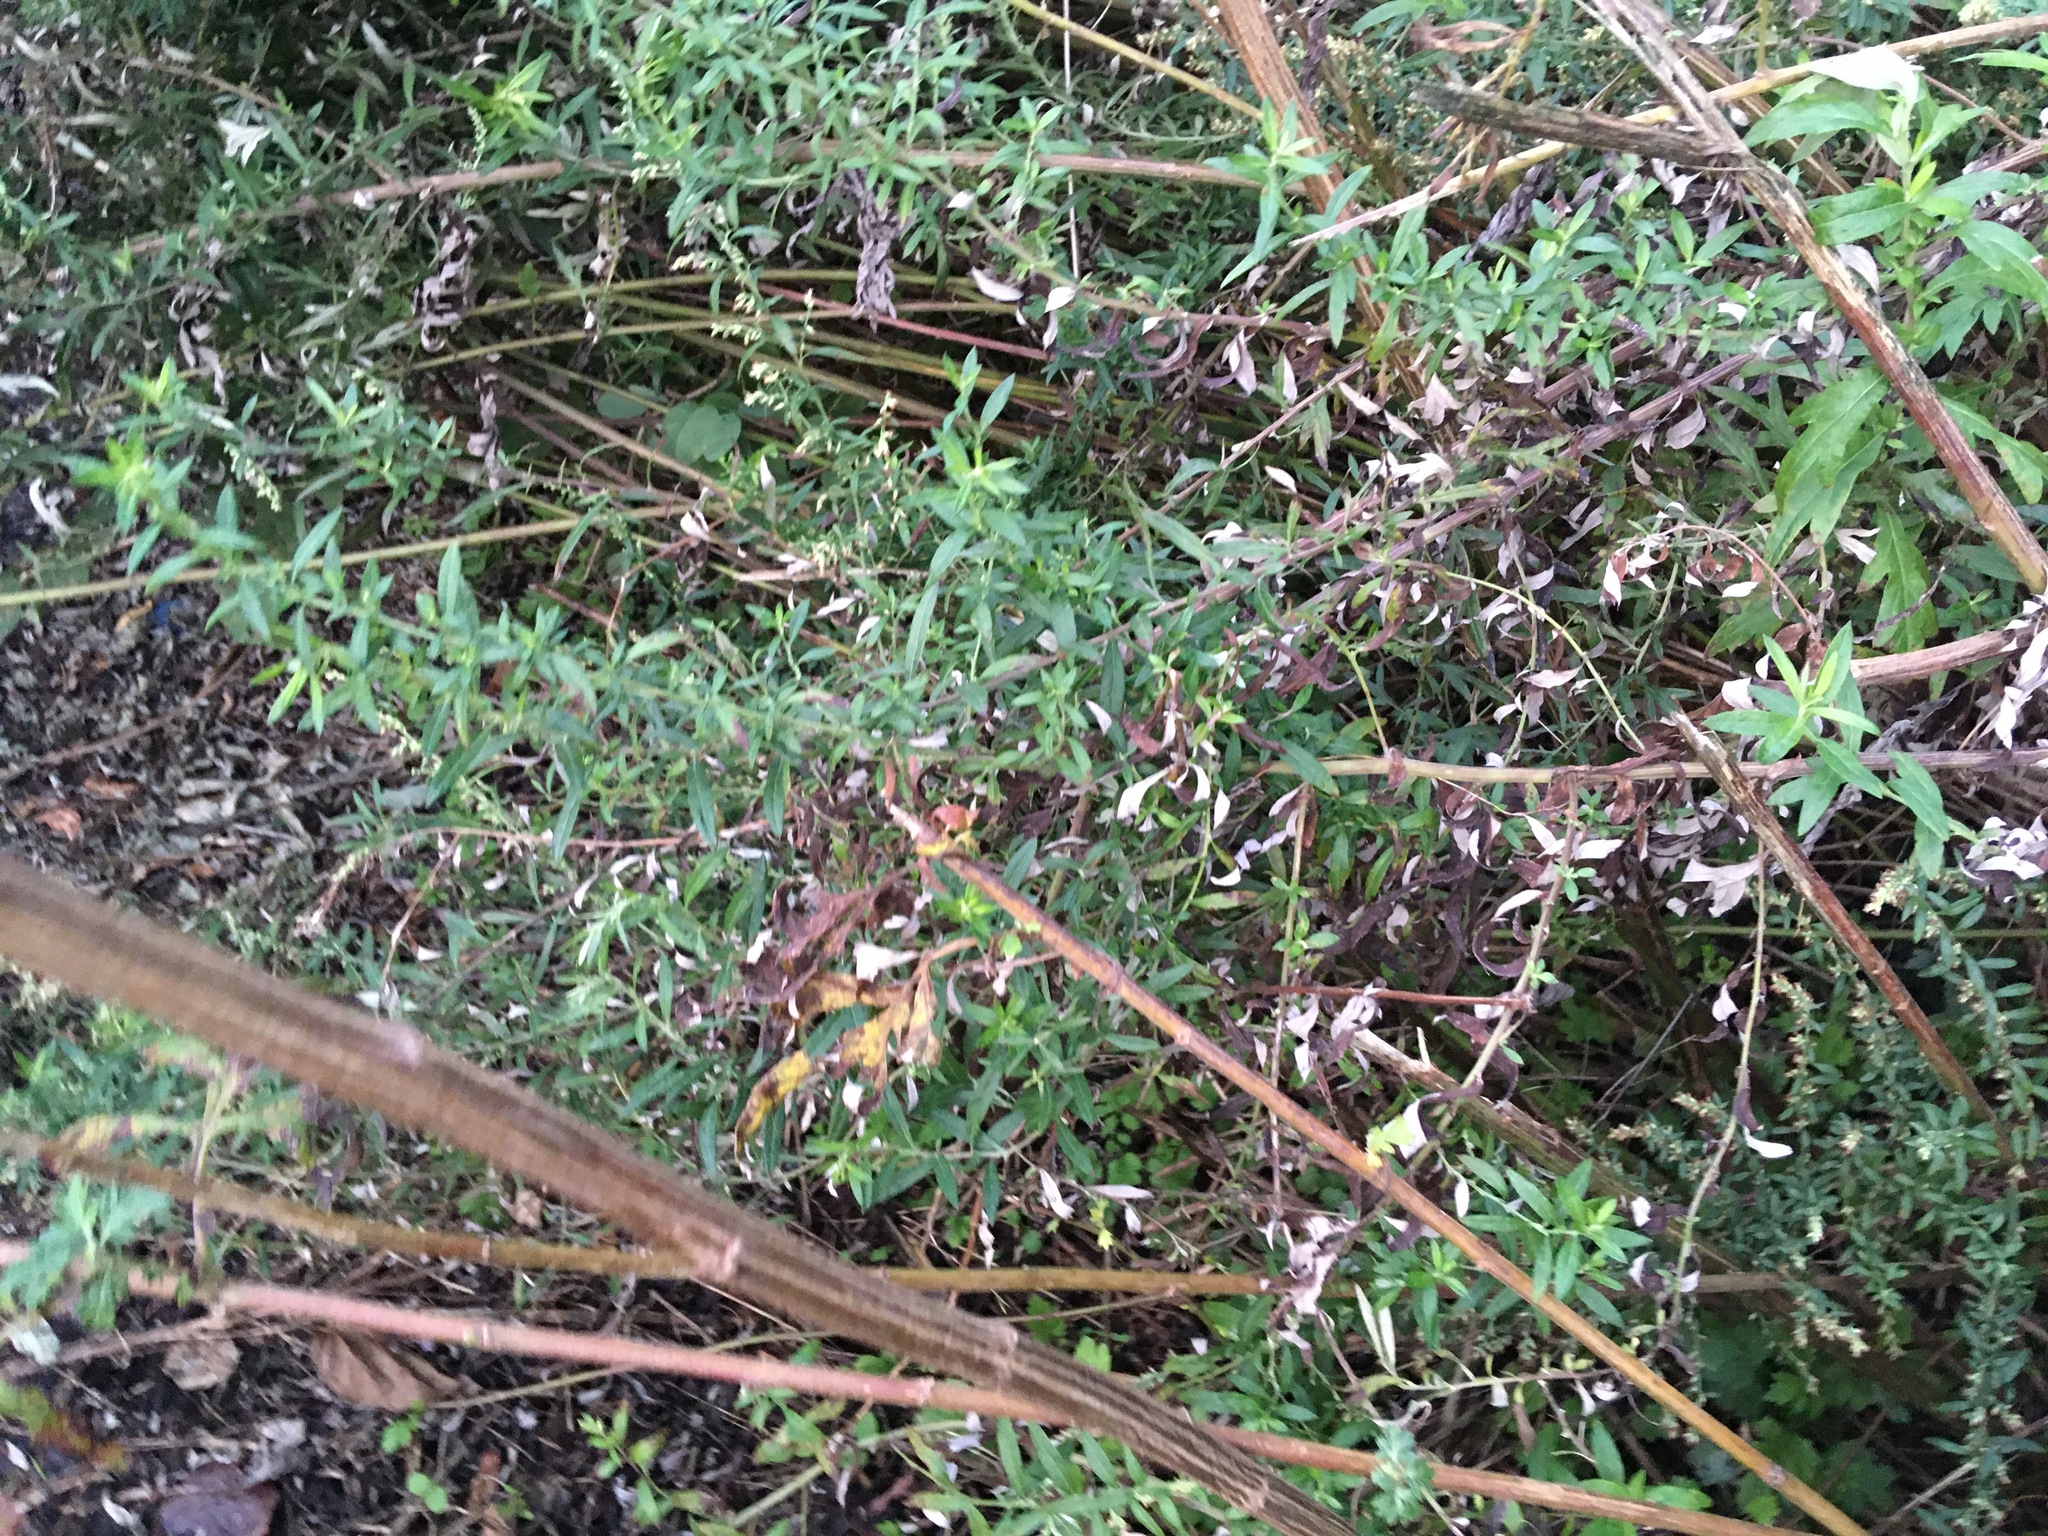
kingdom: Plantae
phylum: Tracheophyta
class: Magnoliopsida
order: Asterales
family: Asteraceae
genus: Artemisia
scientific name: Artemisia vulgaris
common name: Mugwort
